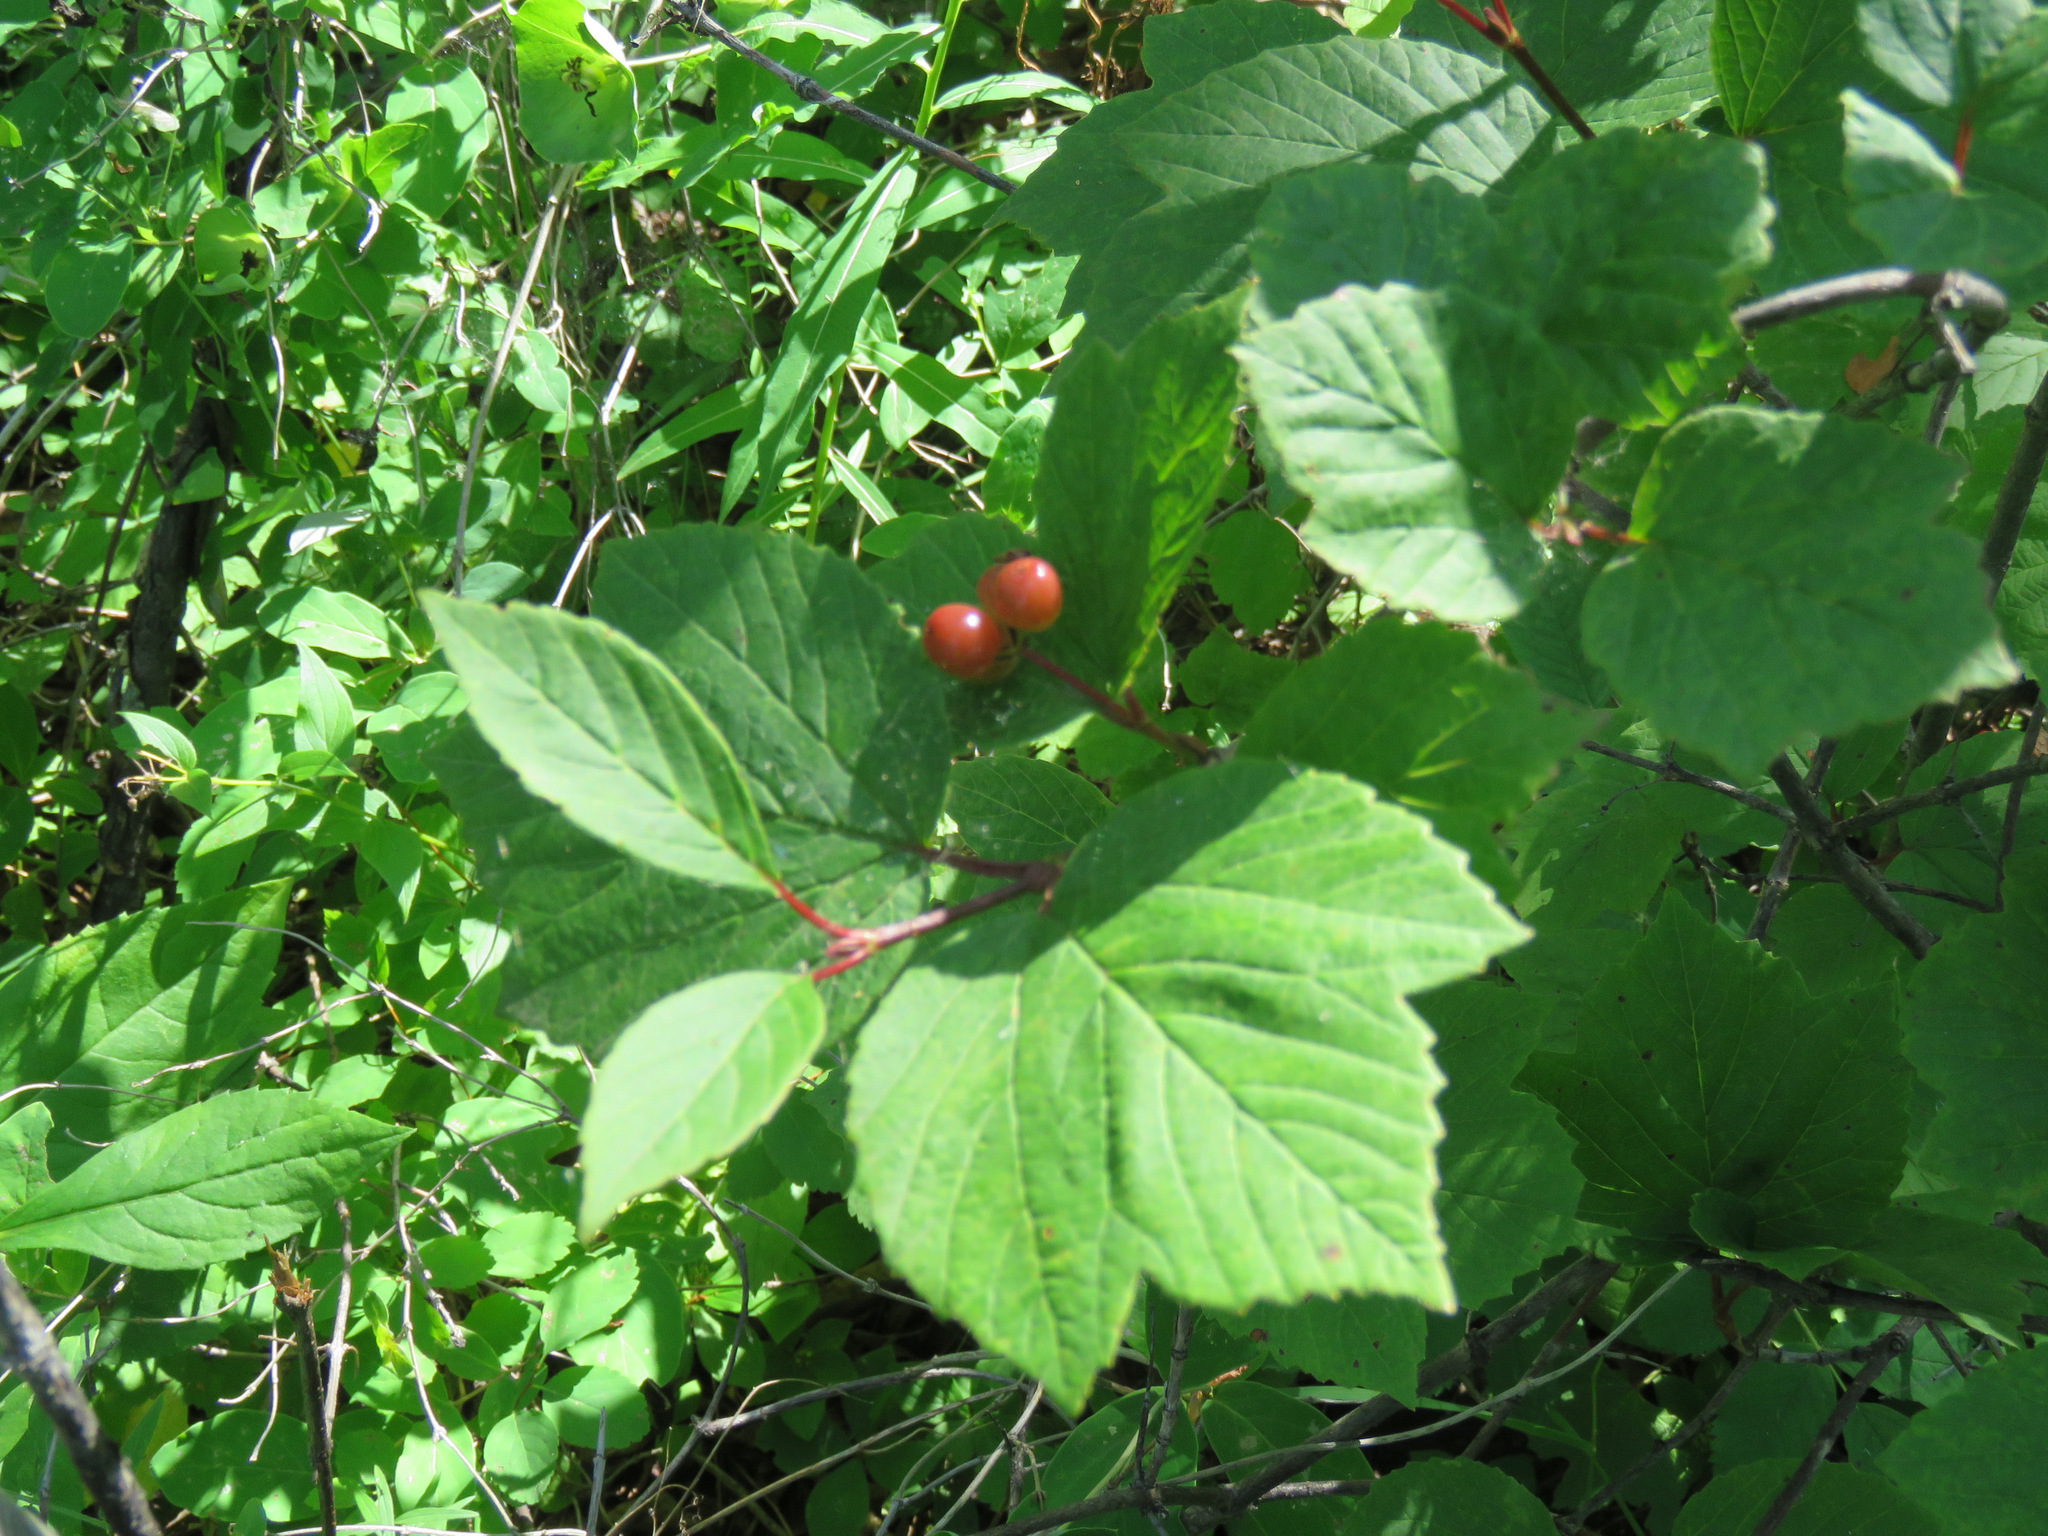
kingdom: Plantae
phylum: Tracheophyta
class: Magnoliopsida
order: Dipsacales
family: Viburnaceae
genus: Viburnum
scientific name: Viburnum edule
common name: Mooseberry
